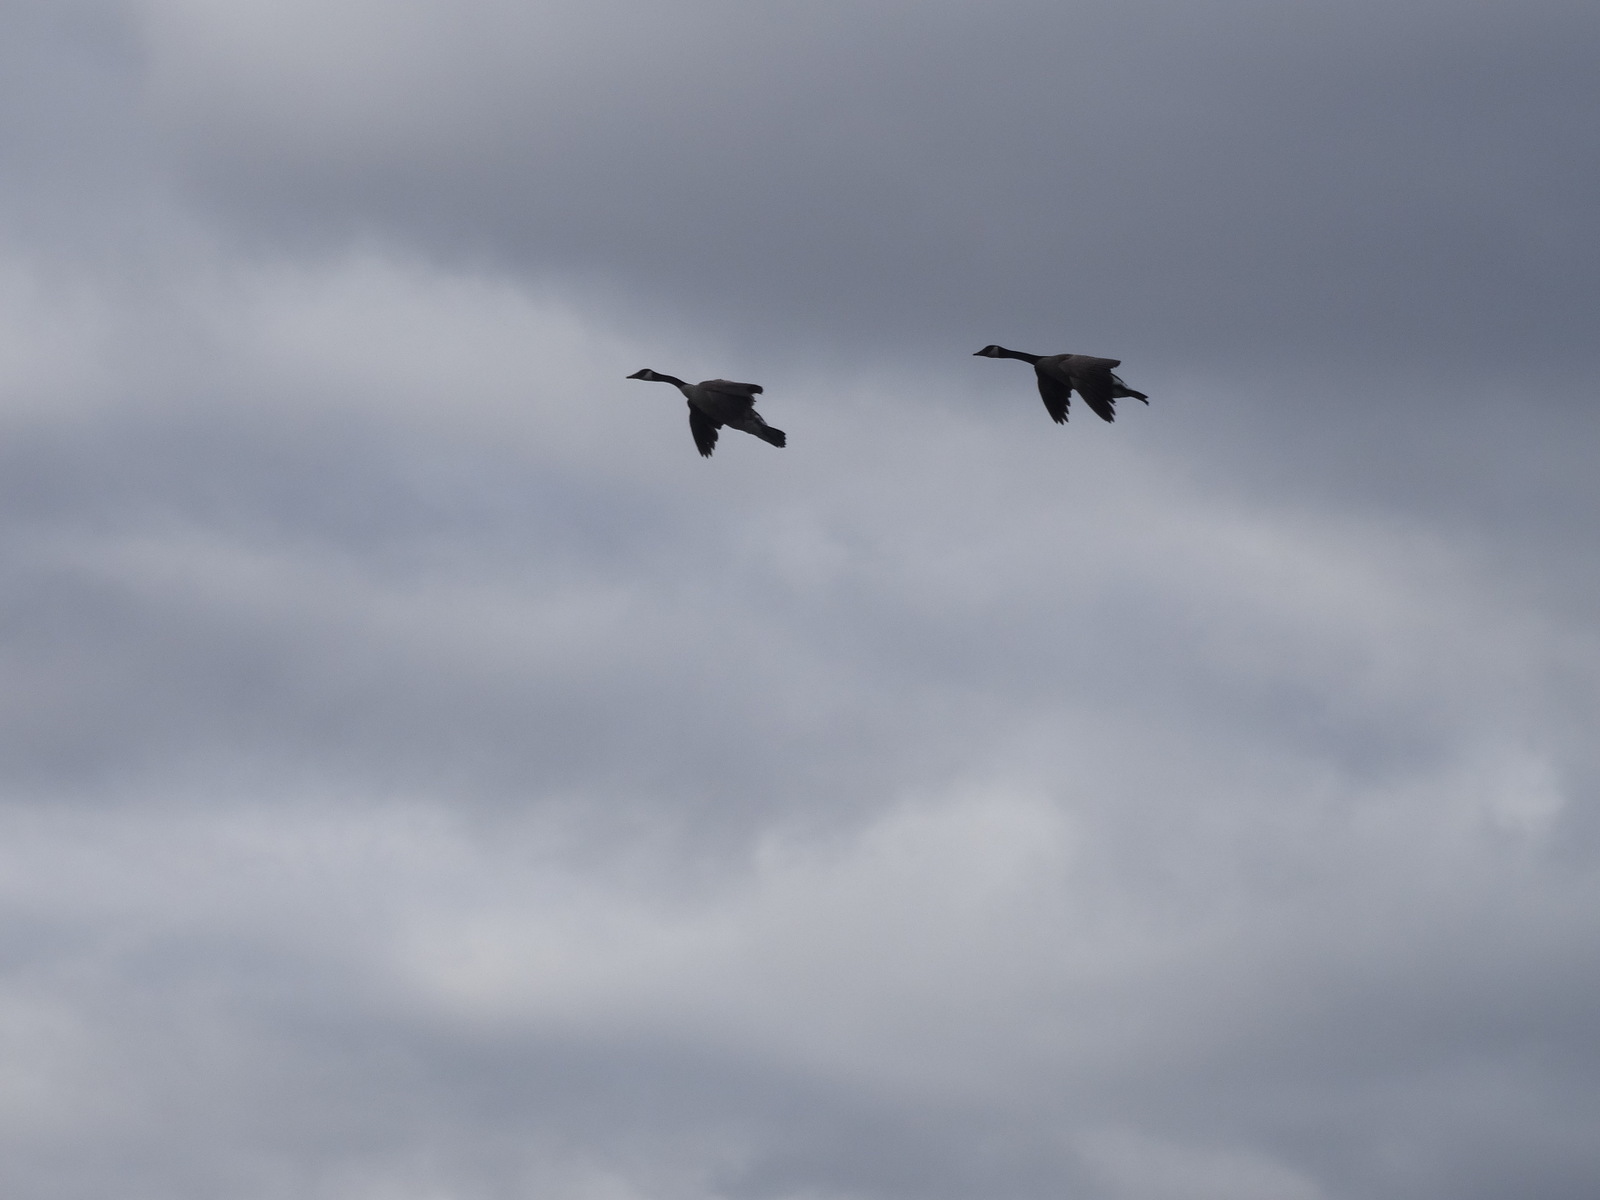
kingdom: Animalia
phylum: Chordata
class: Aves
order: Anseriformes
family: Anatidae
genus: Branta
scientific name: Branta canadensis
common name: Canada goose
